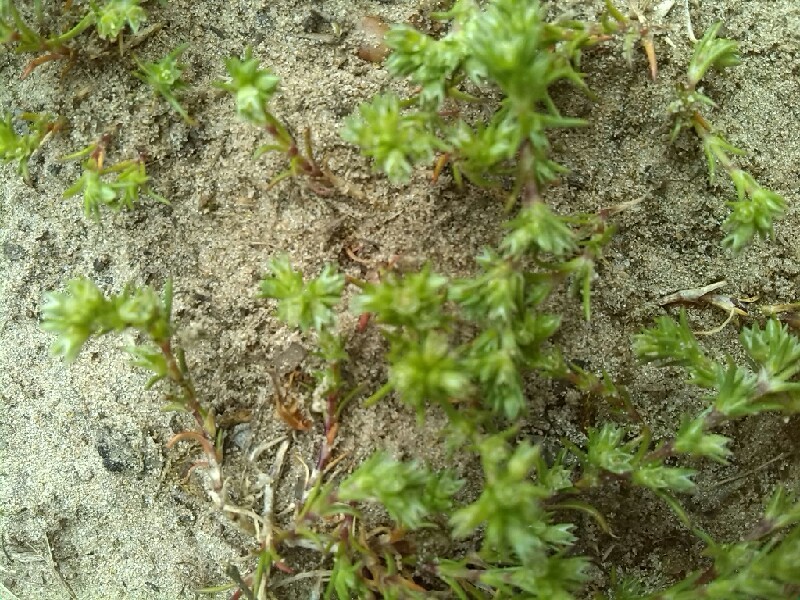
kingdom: Plantae
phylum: Tracheophyta
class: Magnoliopsida
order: Caryophyllales
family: Caryophyllaceae
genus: Scleranthus
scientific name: Scleranthus annuus
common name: Annual knawel
